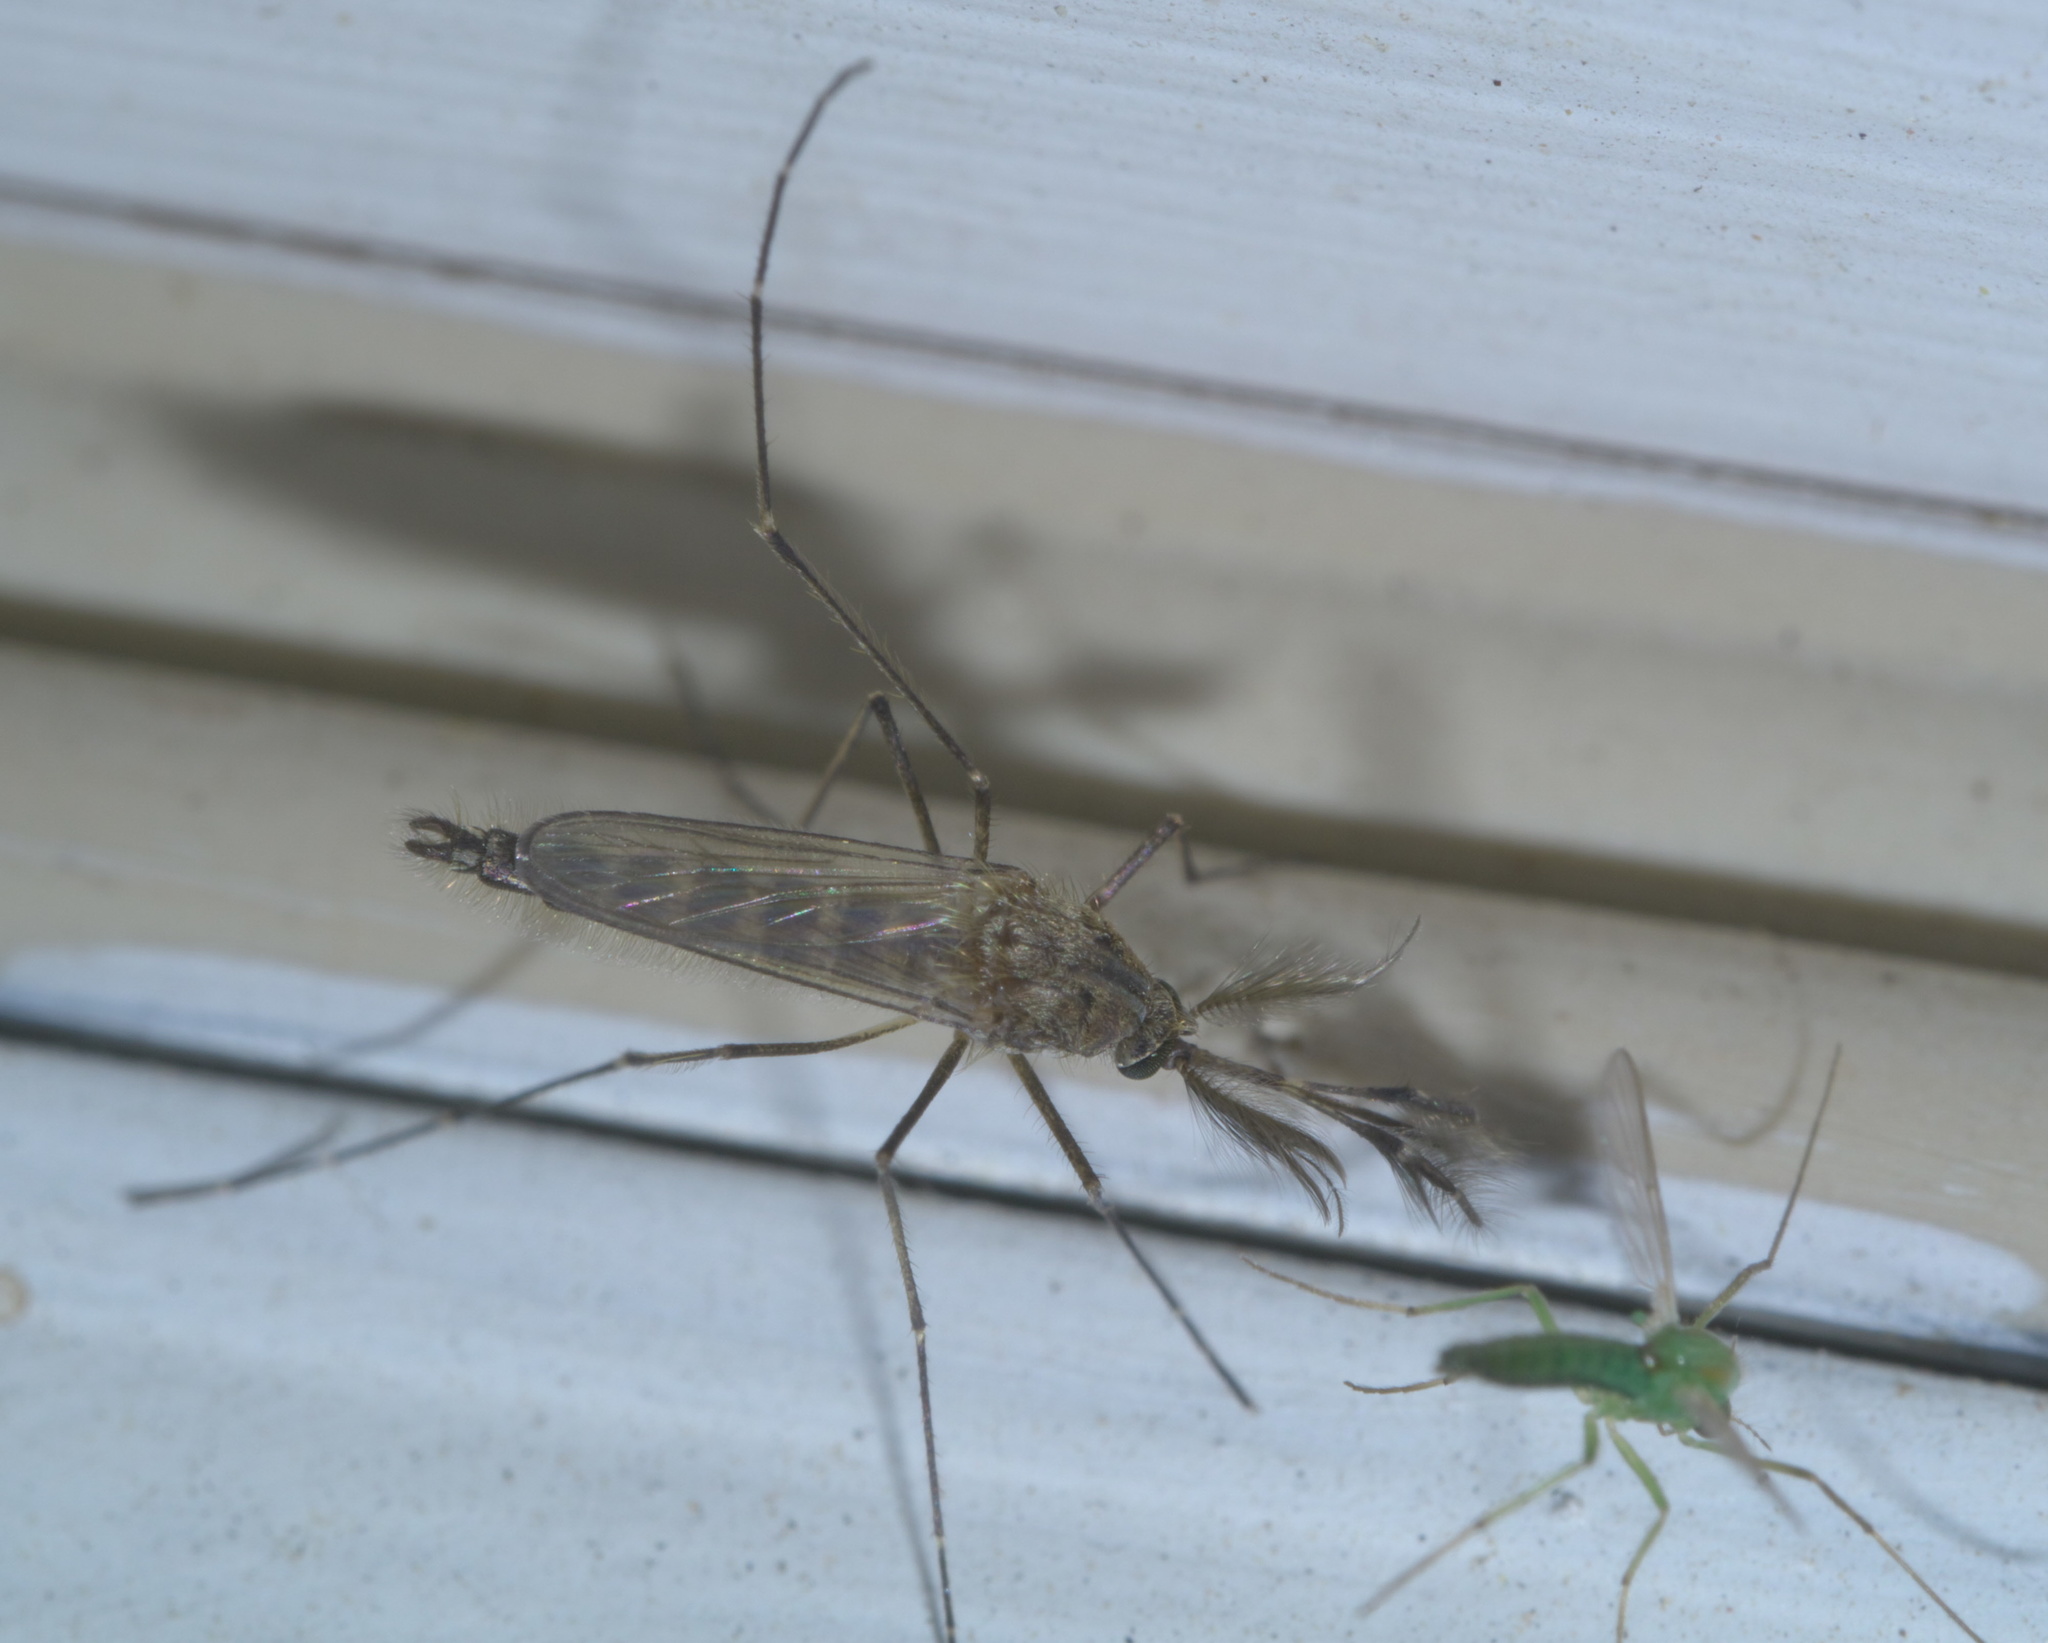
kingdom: Animalia
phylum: Arthropoda
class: Insecta
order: Diptera
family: Culicidae
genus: Aedes
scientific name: Aedes vexans
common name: Inland floodwater mosquito
